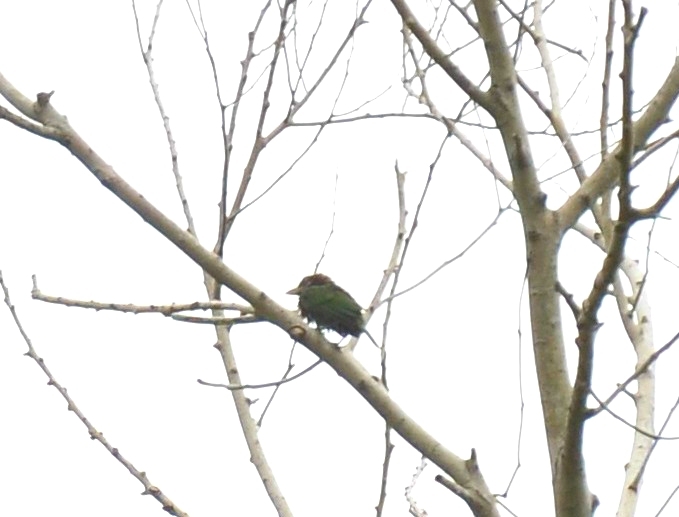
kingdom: Animalia
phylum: Chordata
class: Aves
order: Piciformes
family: Megalaimidae
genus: Psilopogon
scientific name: Psilopogon viridis
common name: White-cheeked barbet
